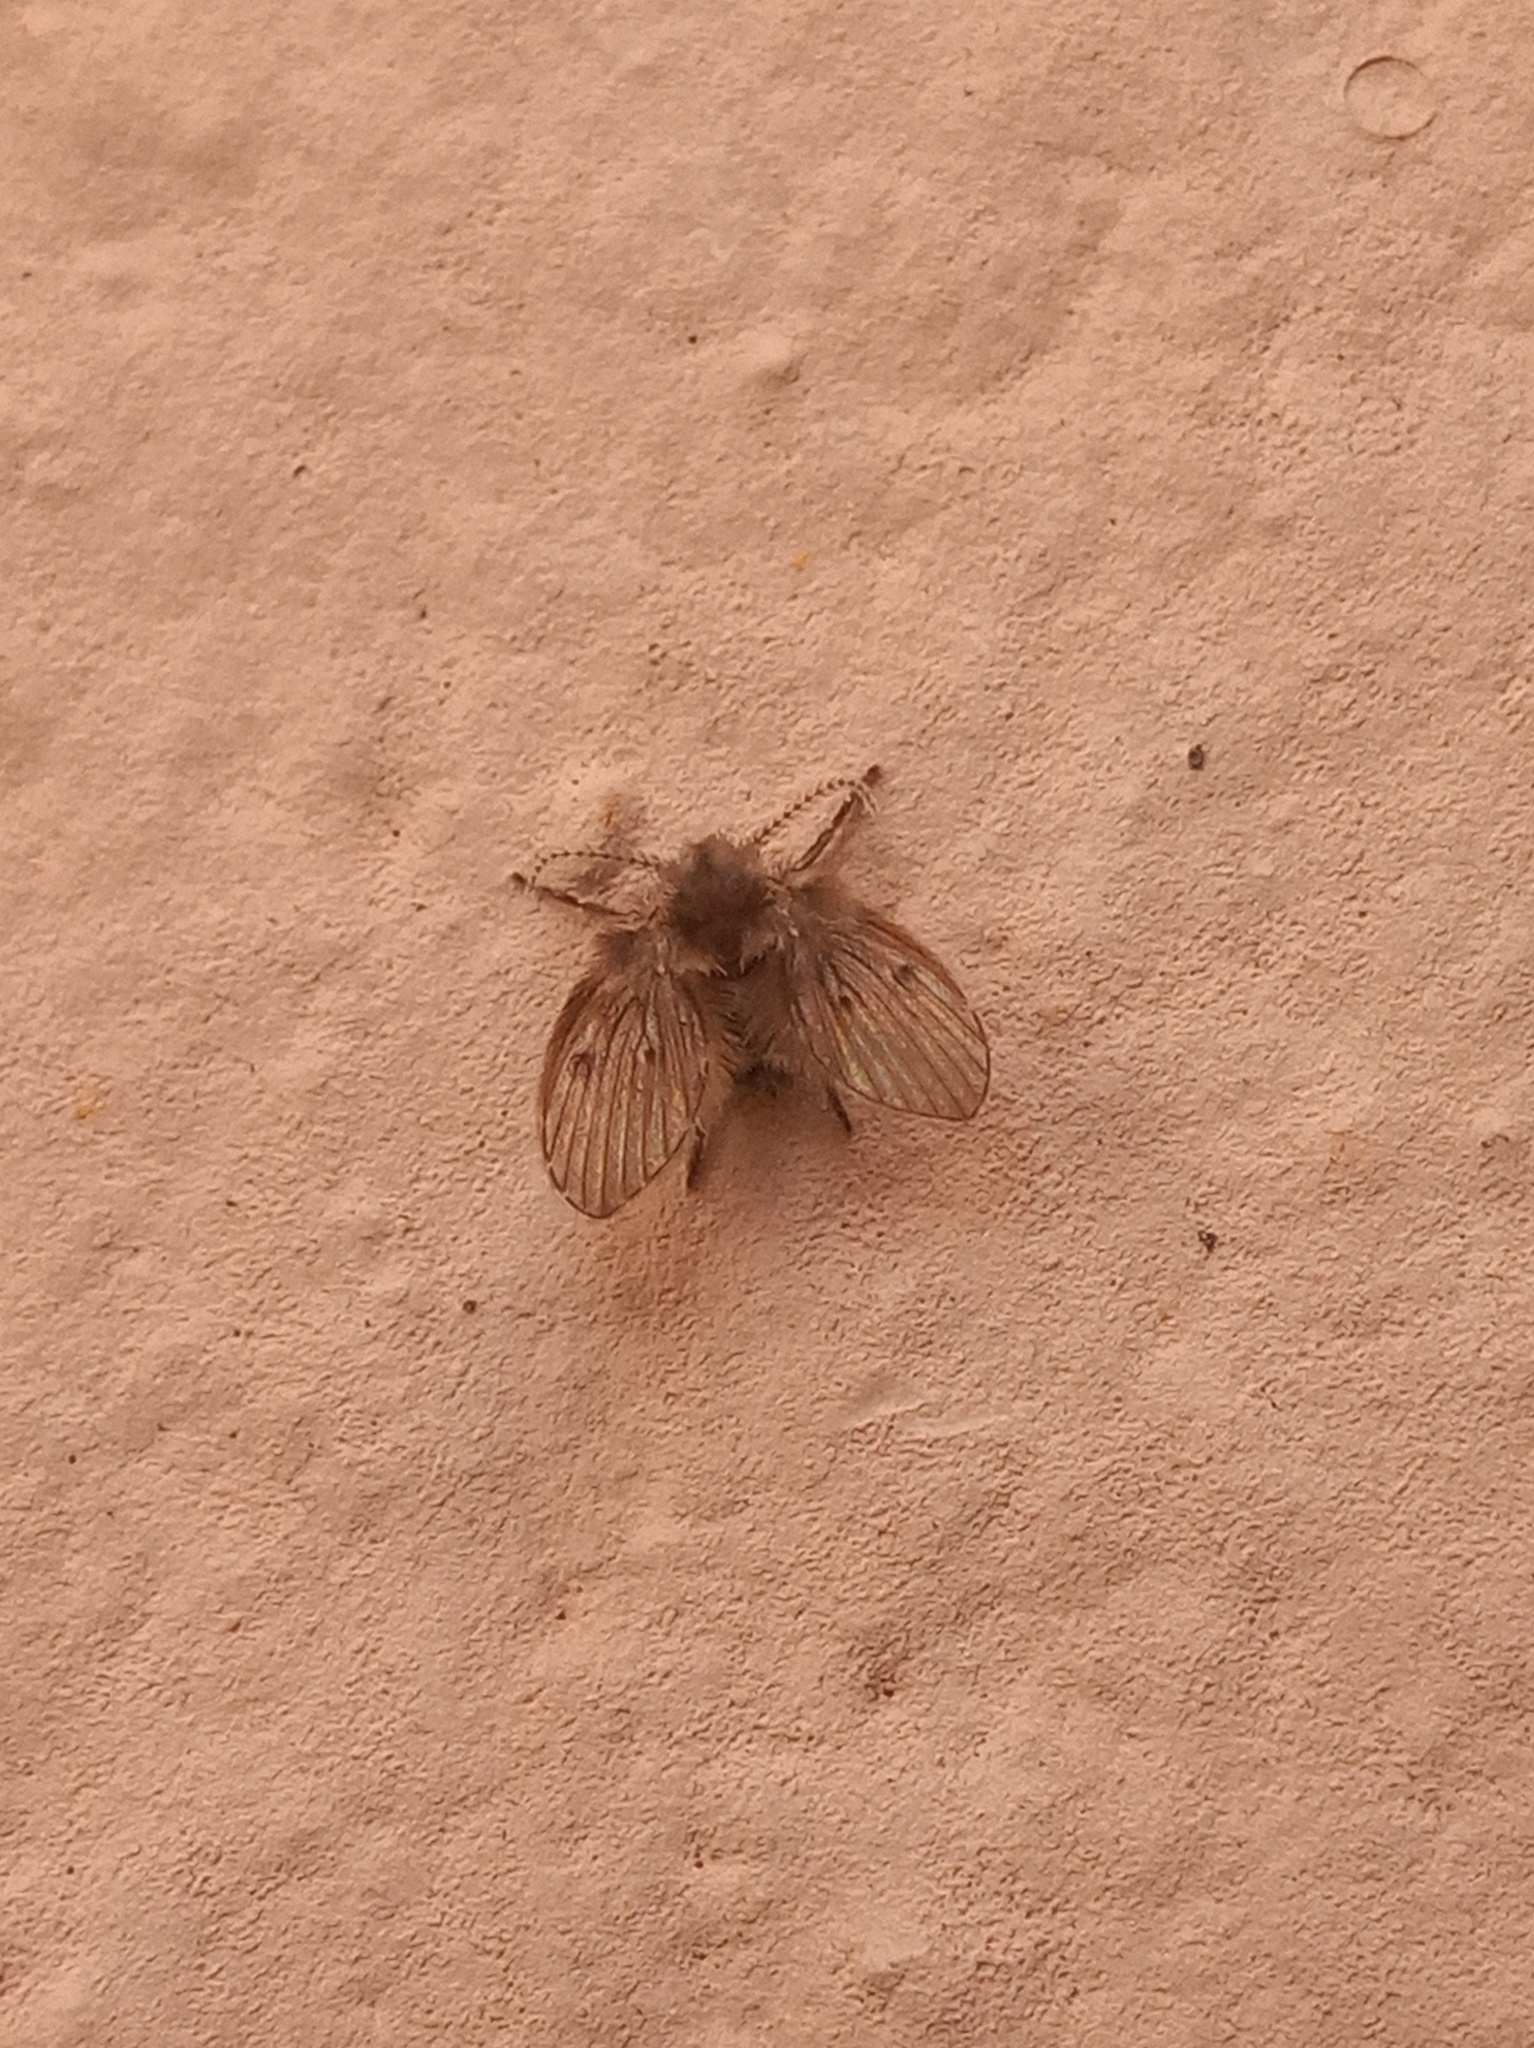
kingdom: Animalia
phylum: Arthropoda
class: Insecta
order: Diptera
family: Psychodidae
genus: Clogmia
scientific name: Clogmia albipunctatus
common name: White-spotted moth fly
